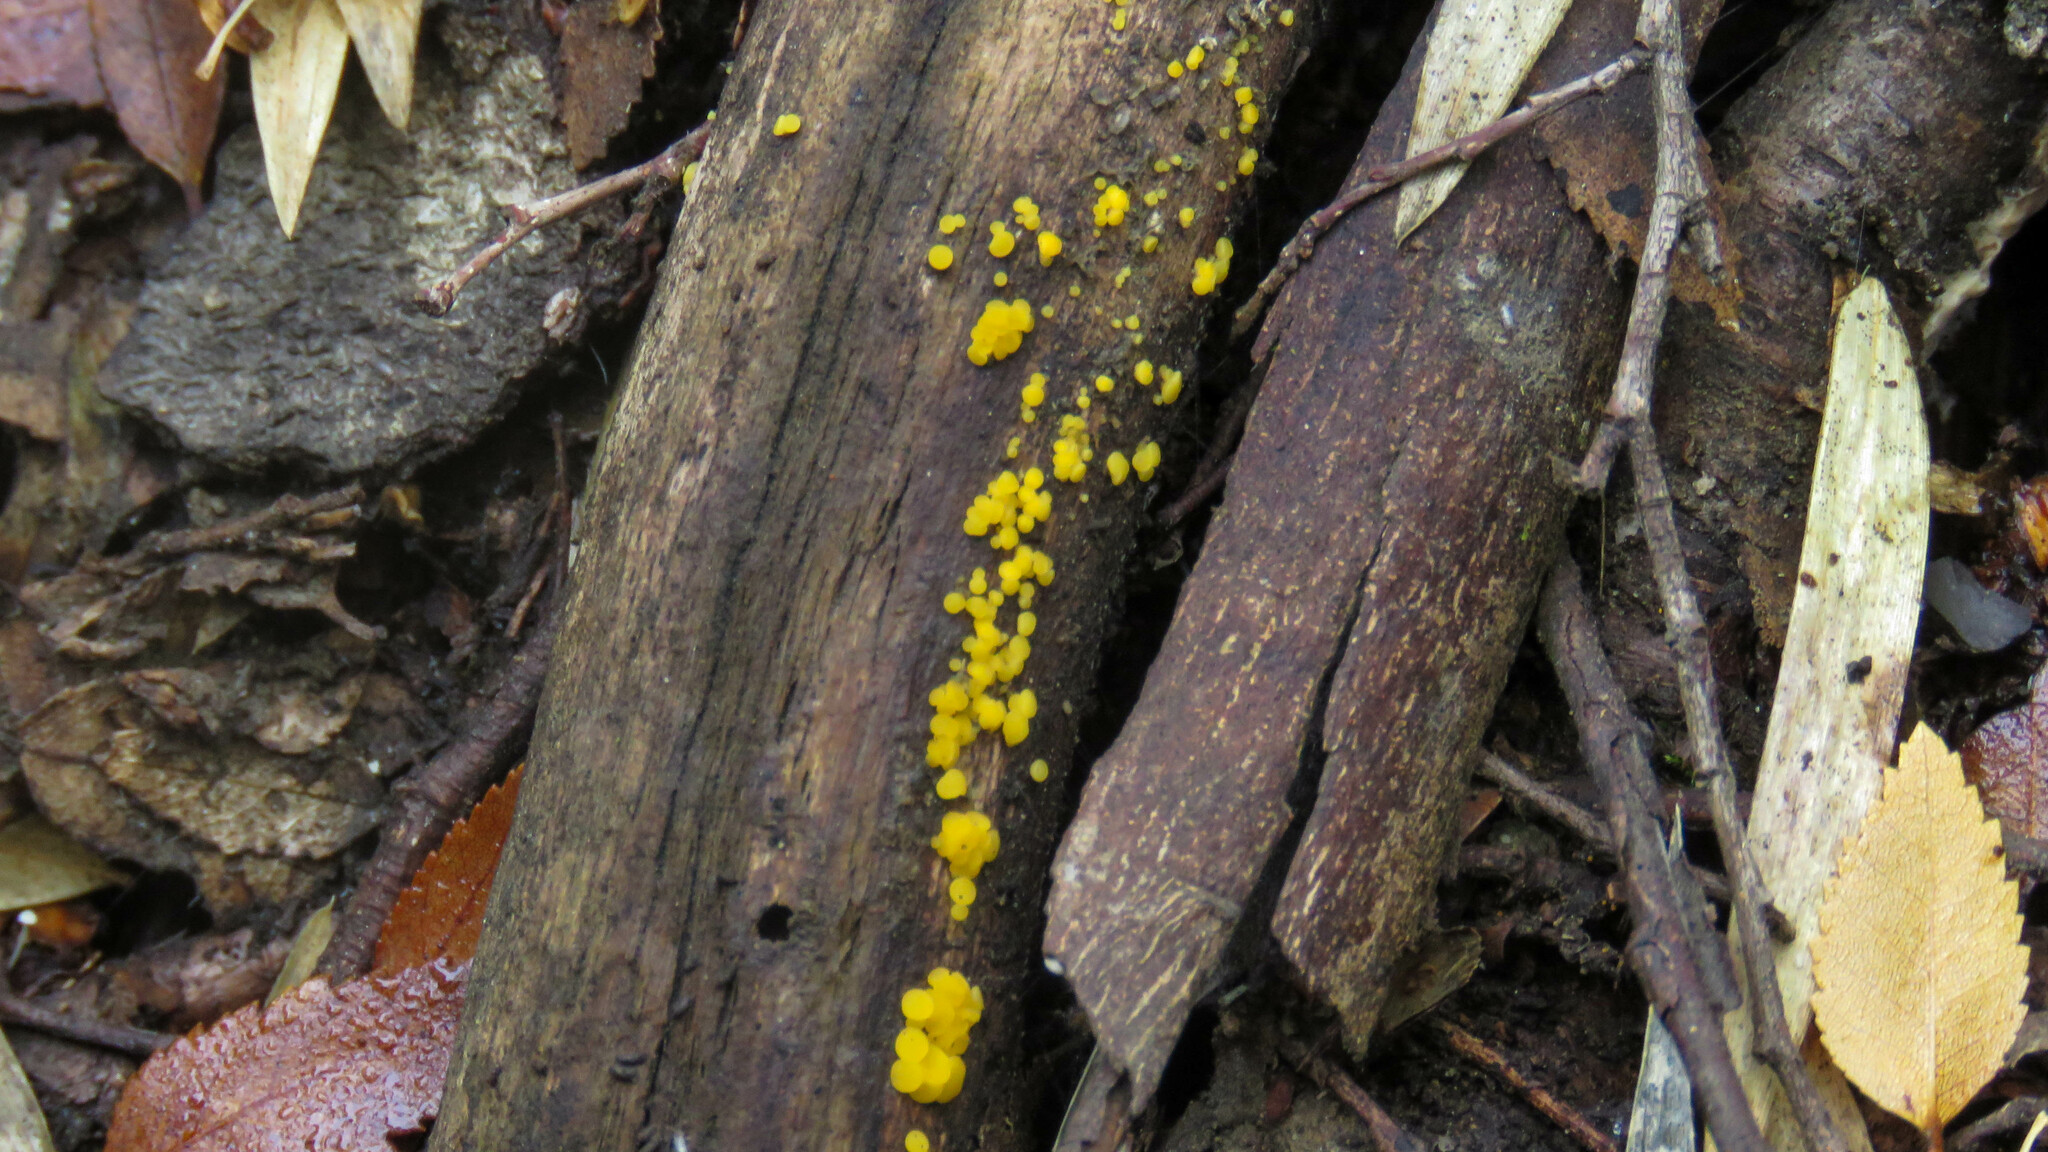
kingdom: Fungi
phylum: Ascomycota
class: Leotiomycetes
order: Helotiales
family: Pezizellaceae
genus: Calycina
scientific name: Calycina citrina
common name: Yellow fairy cups
